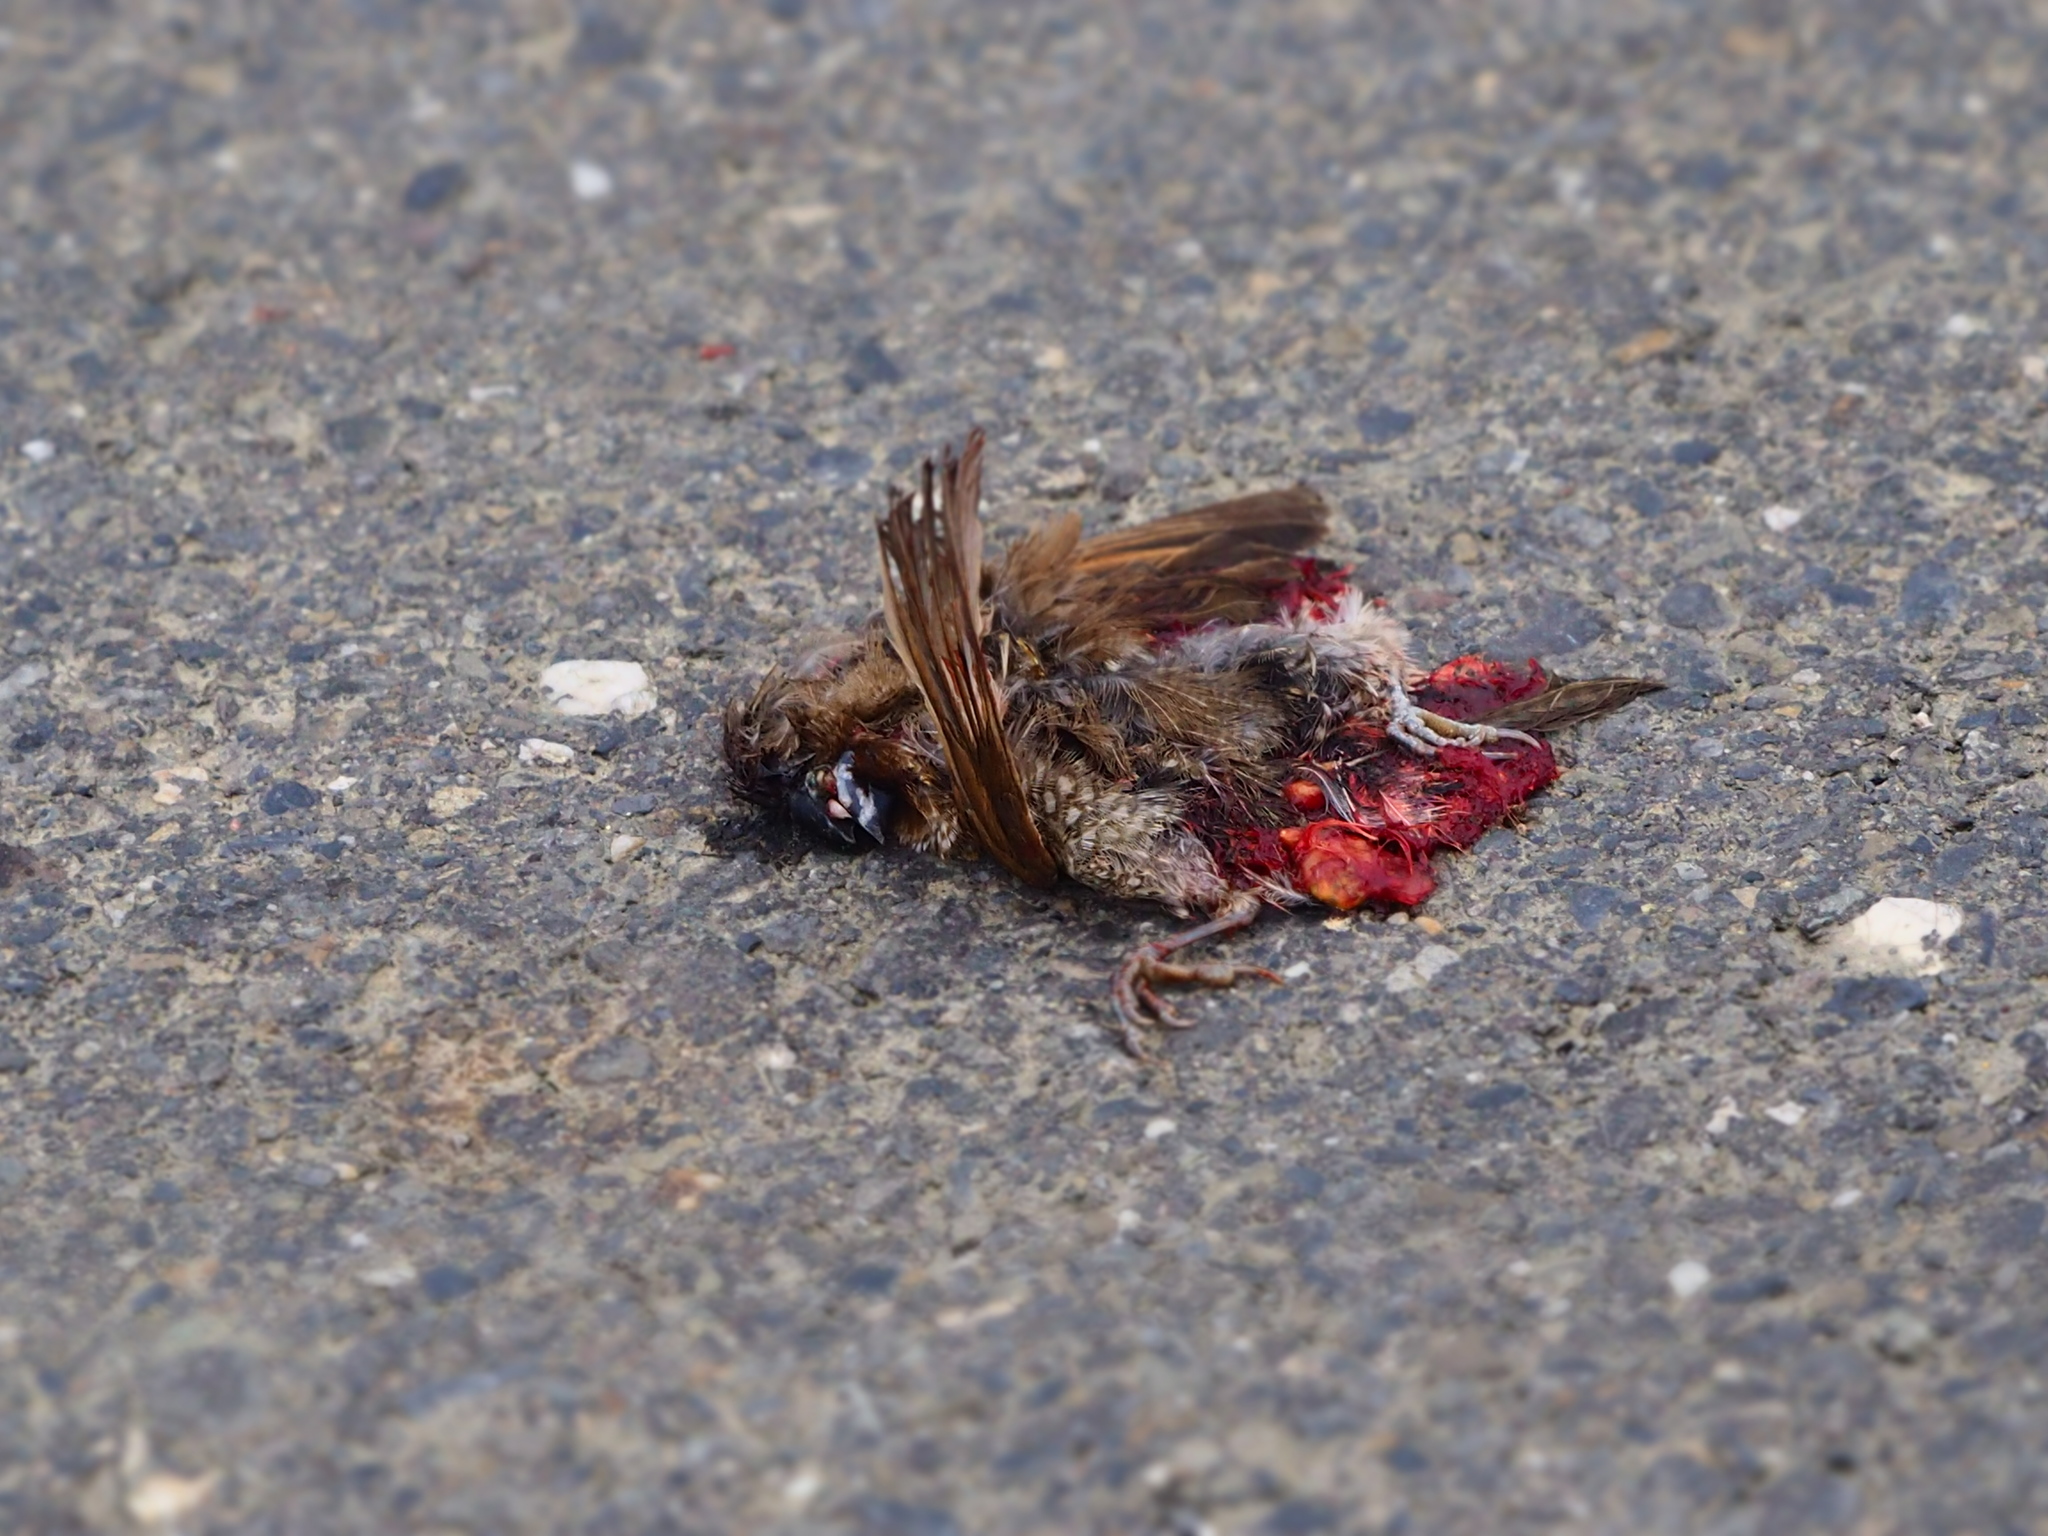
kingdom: Animalia
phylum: Chordata
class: Aves
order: Passeriformes
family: Estrildidae
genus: Lonchura
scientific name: Lonchura punctulata
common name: Scaly-breasted munia
